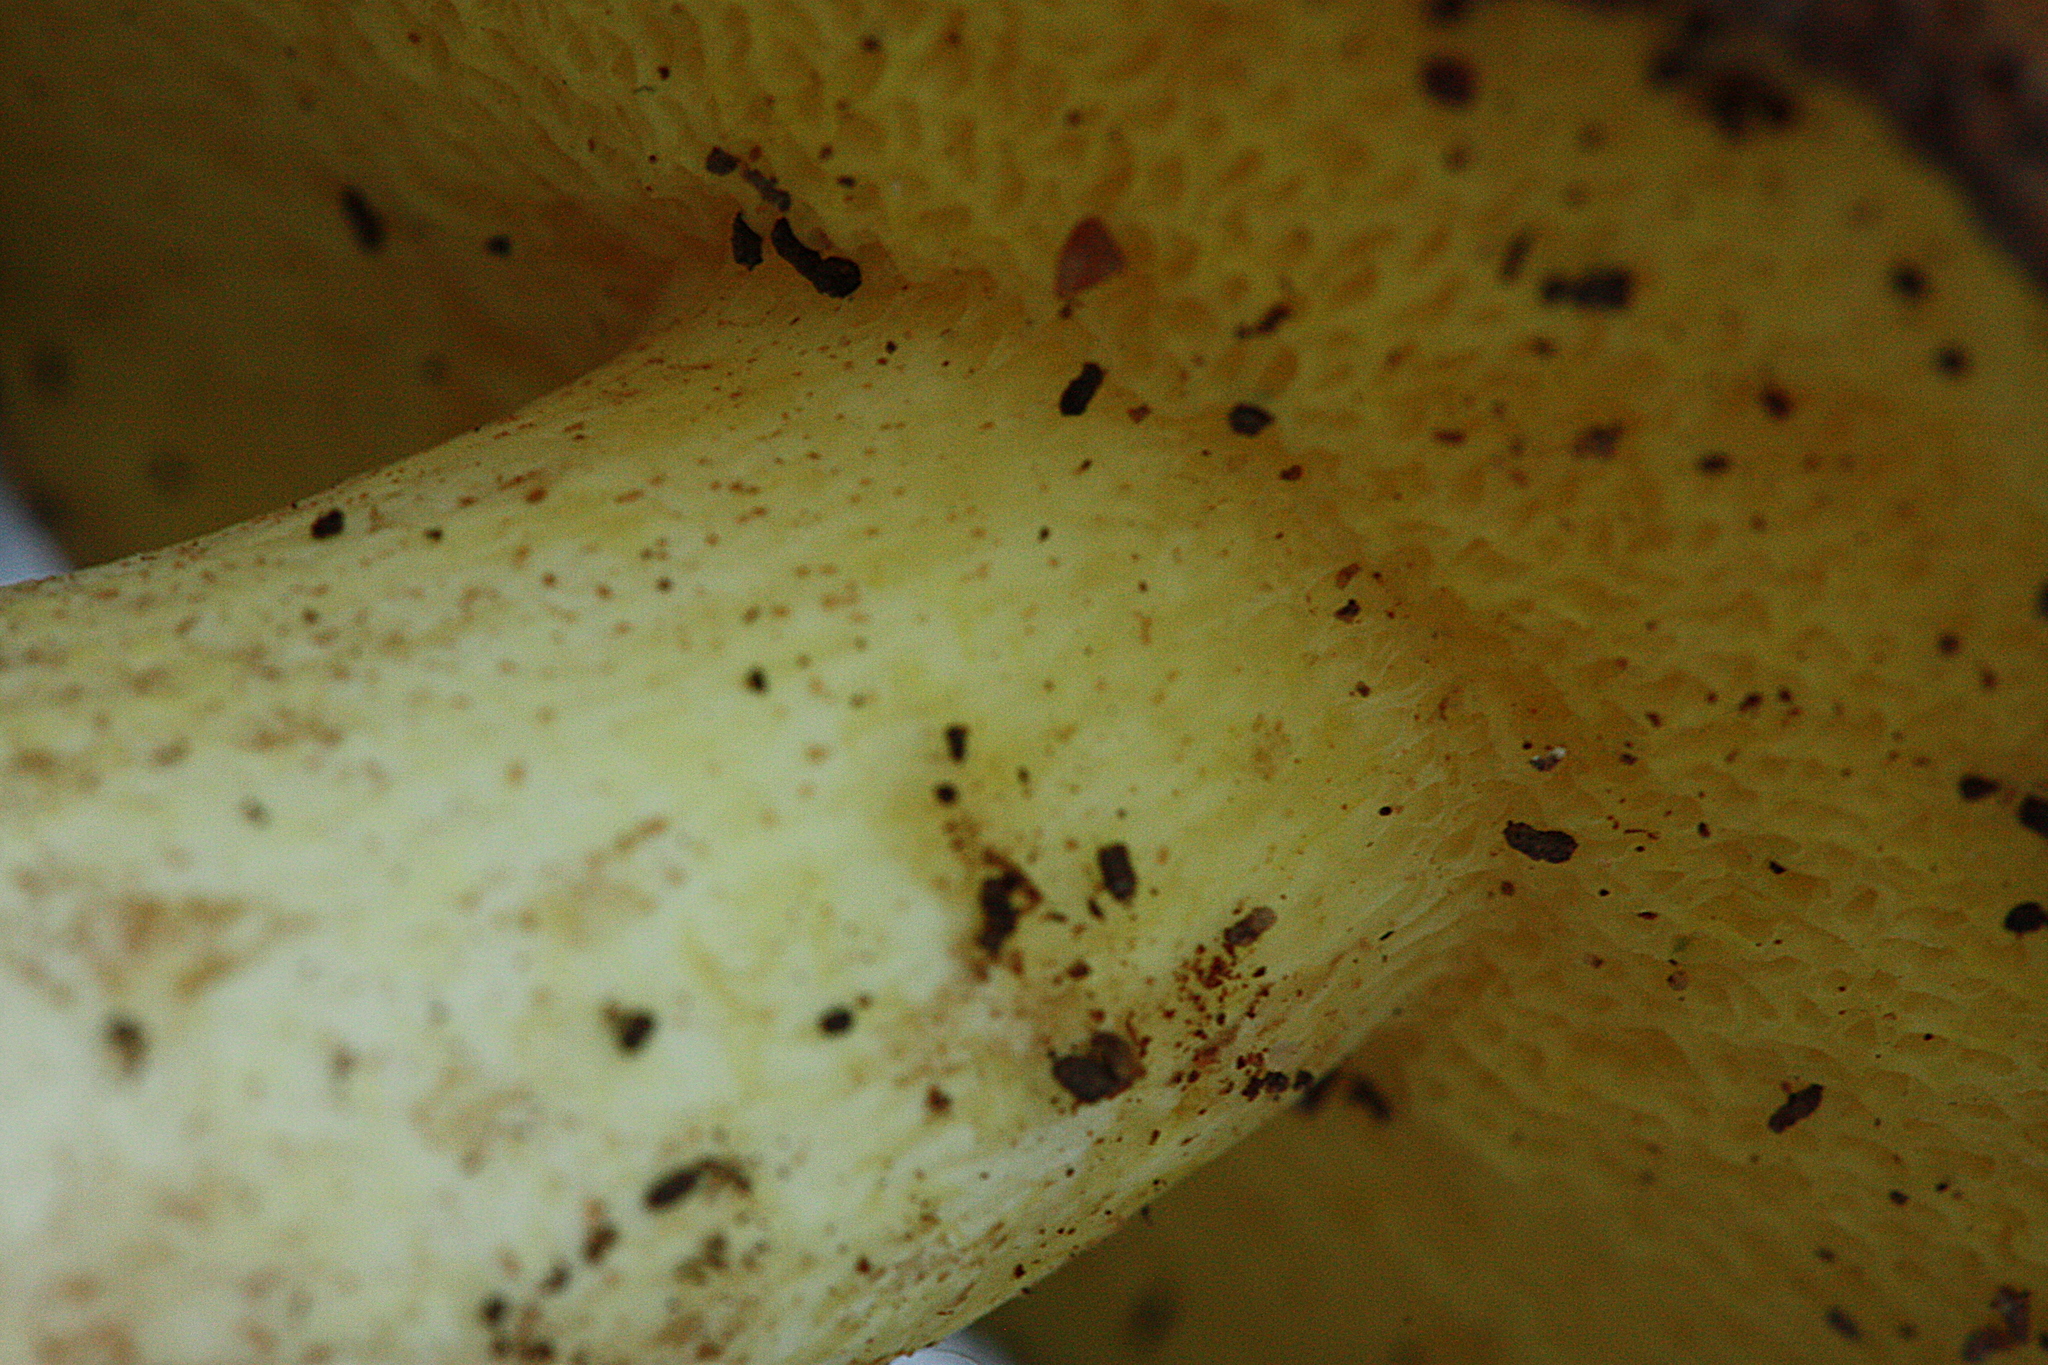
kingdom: Fungi
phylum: Basidiomycota
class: Agaricomycetes
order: Boletales
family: Suillaceae
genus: Suillus
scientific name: Suillus collinitus
